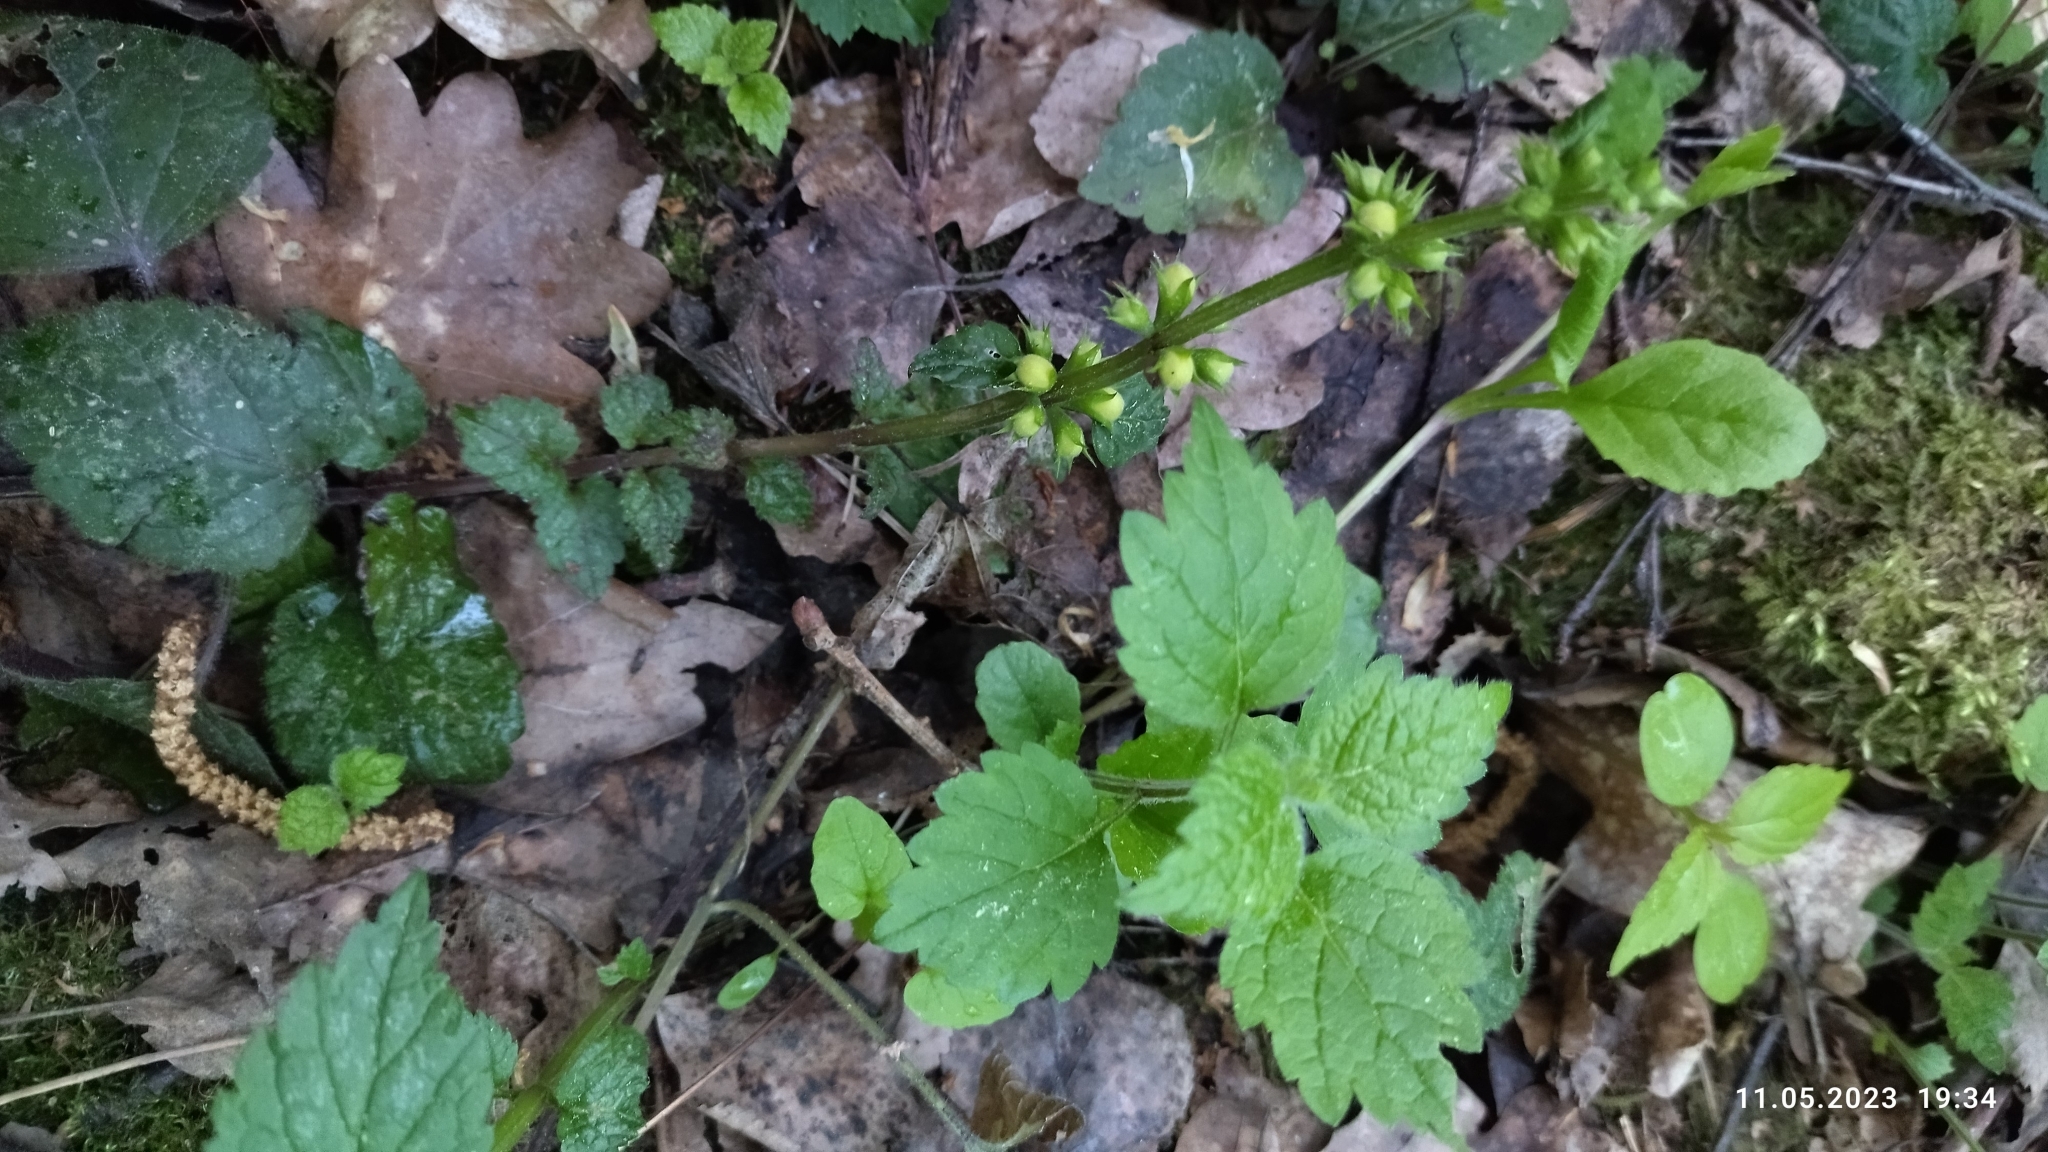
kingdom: Plantae
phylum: Tracheophyta
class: Magnoliopsida
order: Lamiales
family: Lamiaceae
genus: Lamium
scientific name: Lamium galeobdolon
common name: Yellow archangel
